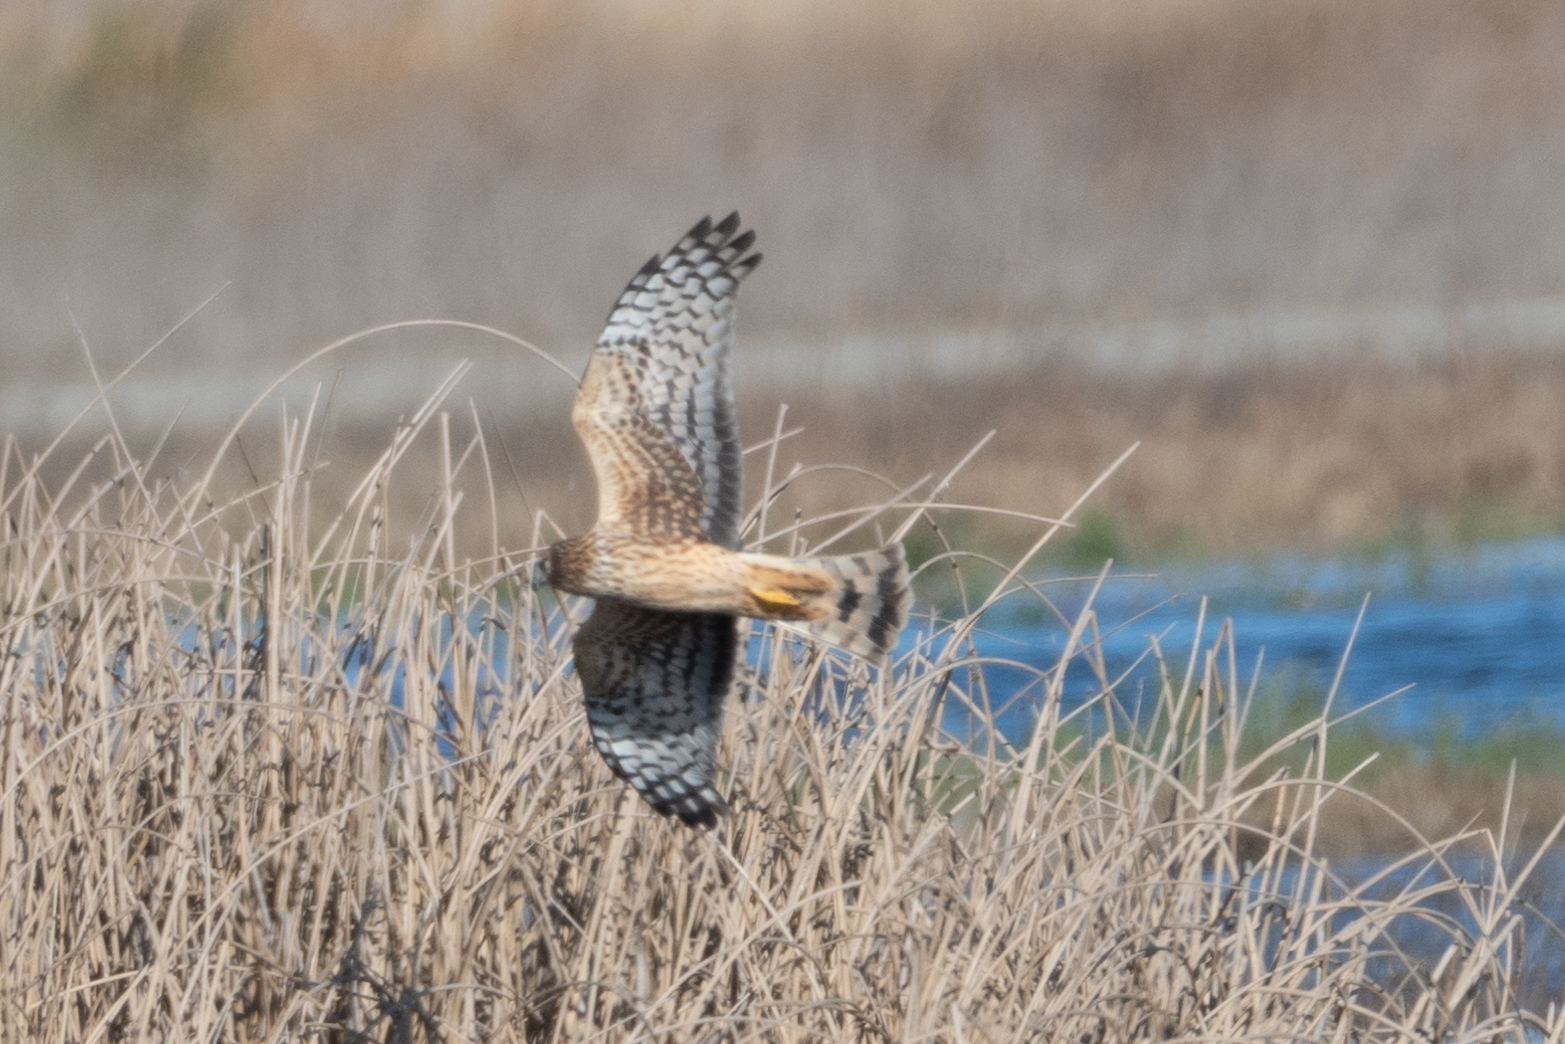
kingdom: Animalia
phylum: Chordata
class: Aves
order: Accipitriformes
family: Accipitridae
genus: Circus
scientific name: Circus cyaneus
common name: Hen harrier
